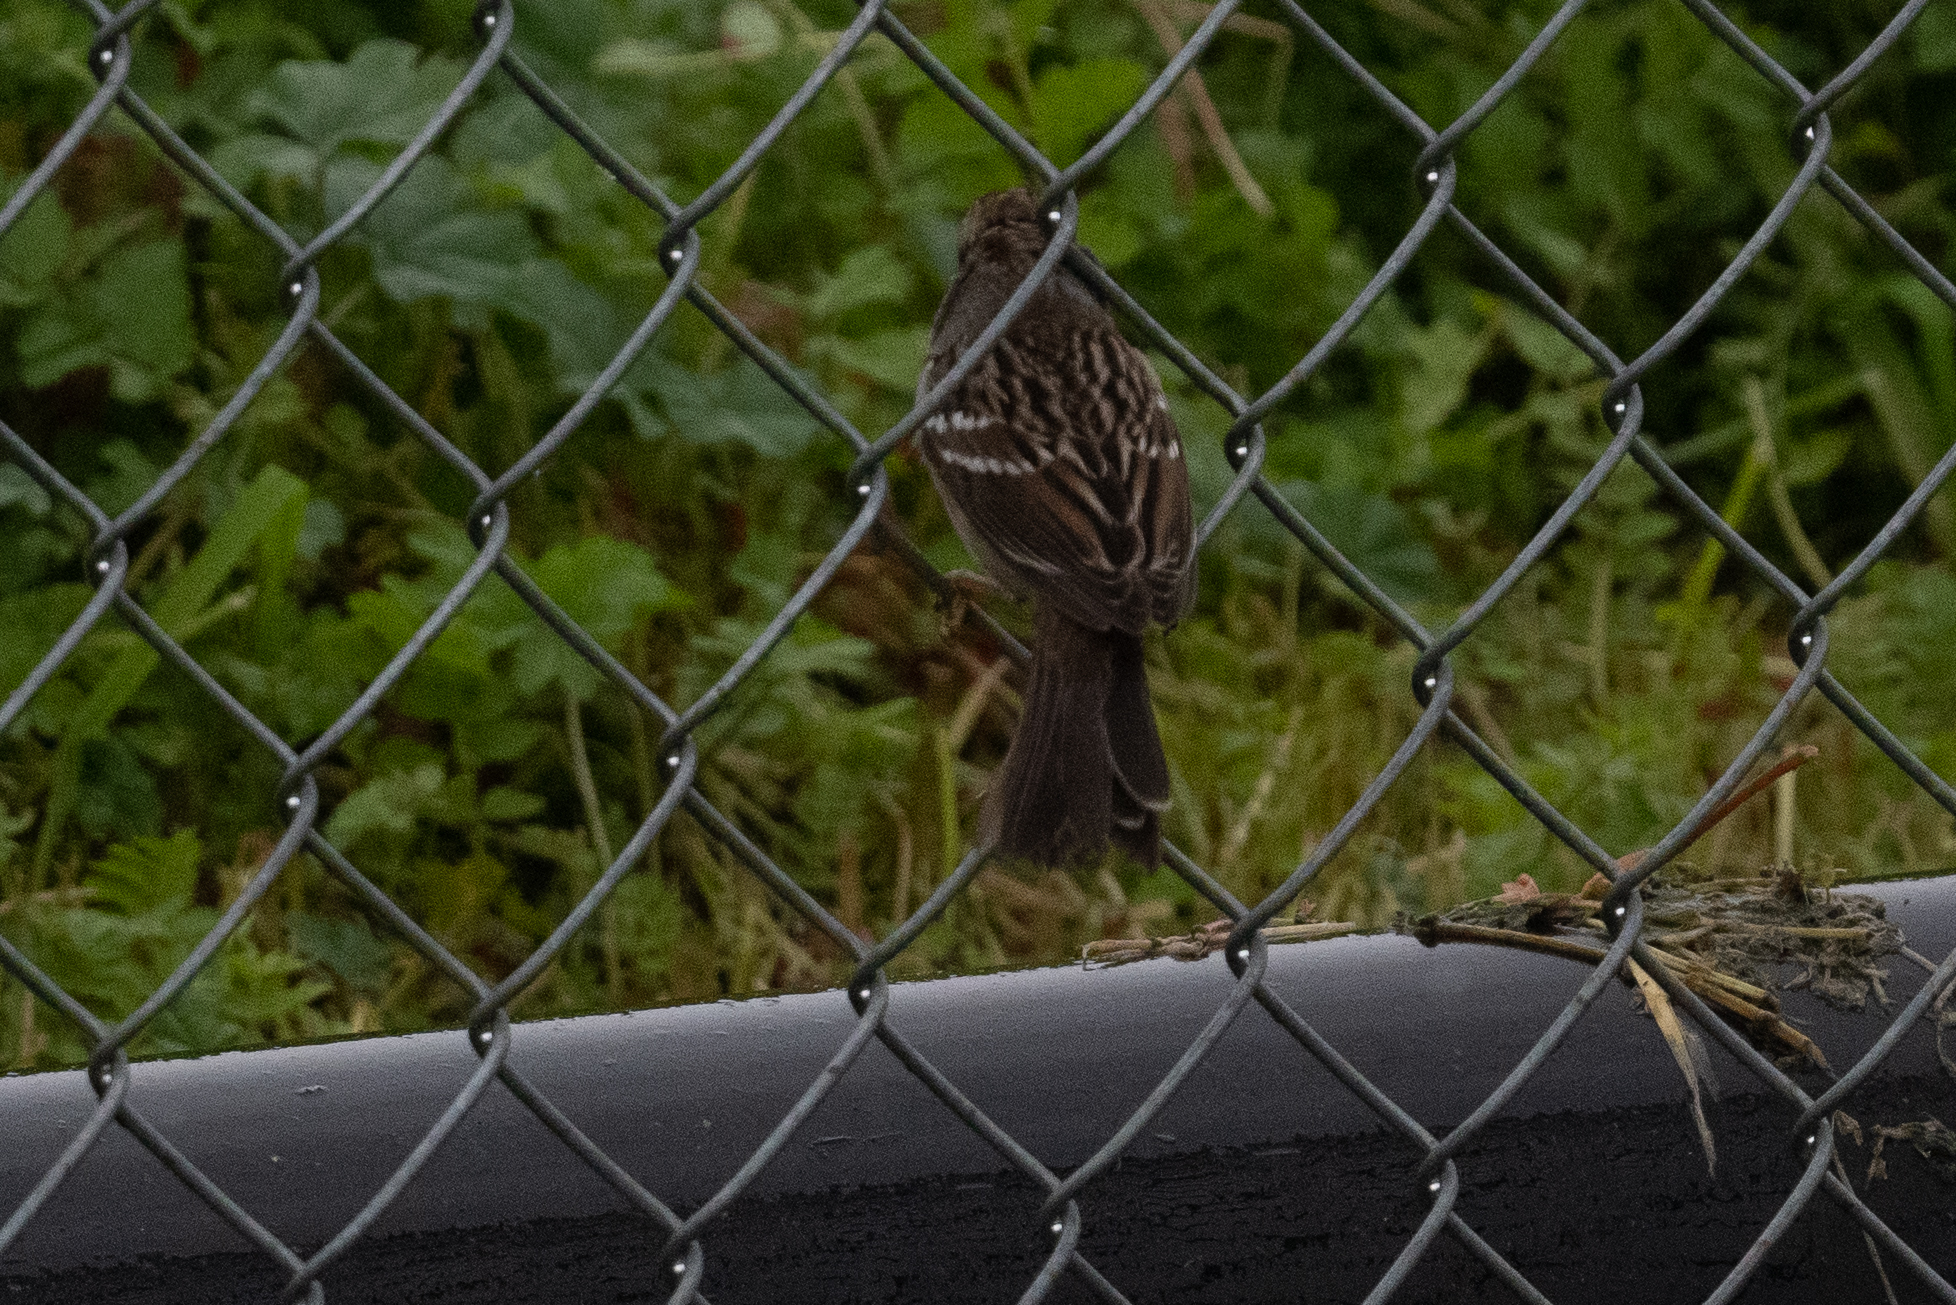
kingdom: Animalia
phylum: Chordata
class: Aves
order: Passeriformes
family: Passerellidae
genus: Zonotrichia
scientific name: Zonotrichia leucophrys
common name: White-crowned sparrow
